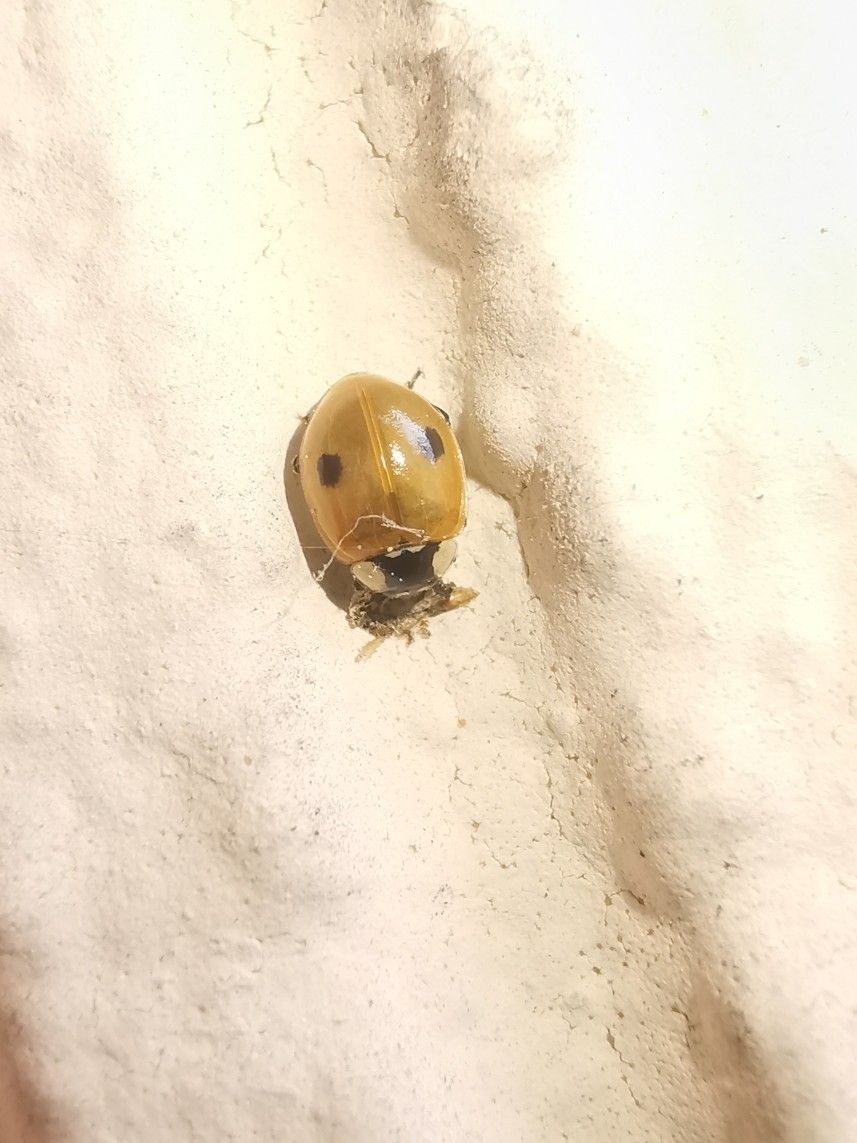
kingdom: Animalia
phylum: Arthropoda
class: Insecta
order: Coleoptera
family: Coccinellidae
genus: Adalia
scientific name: Adalia bipunctata
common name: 2-spot ladybird
